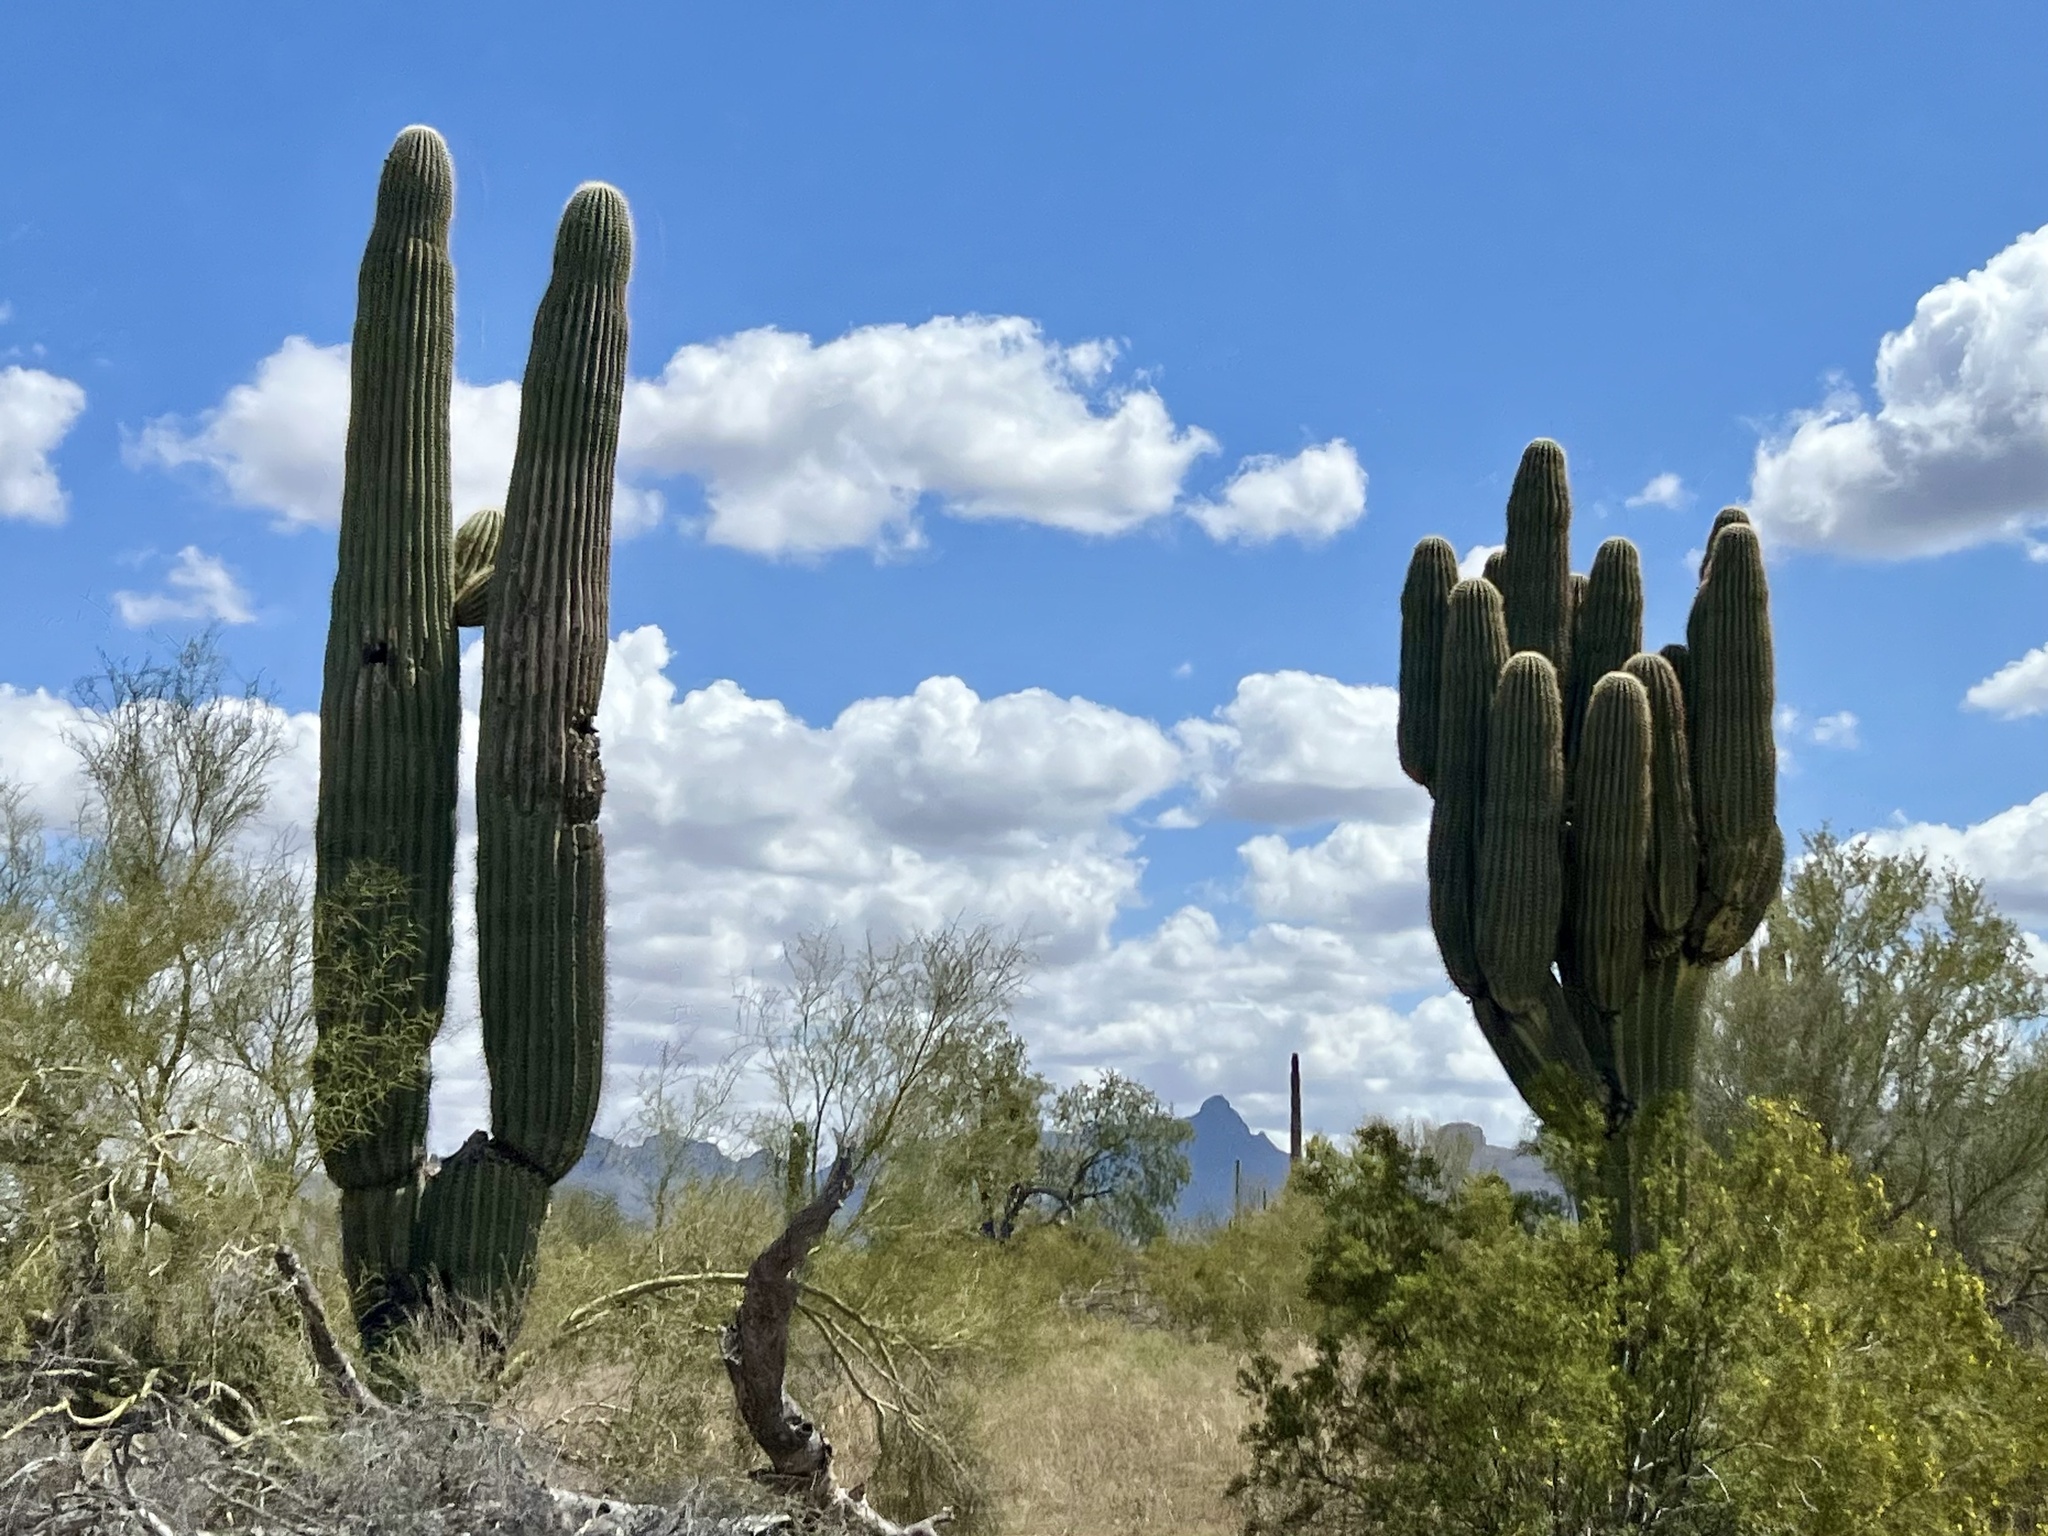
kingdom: Plantae
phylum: Tracheophyta
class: Magnoliopsida
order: Caryophyllales
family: Cactaceae
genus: Carnegiea
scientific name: Carnegiea gigantea
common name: Saguaro
